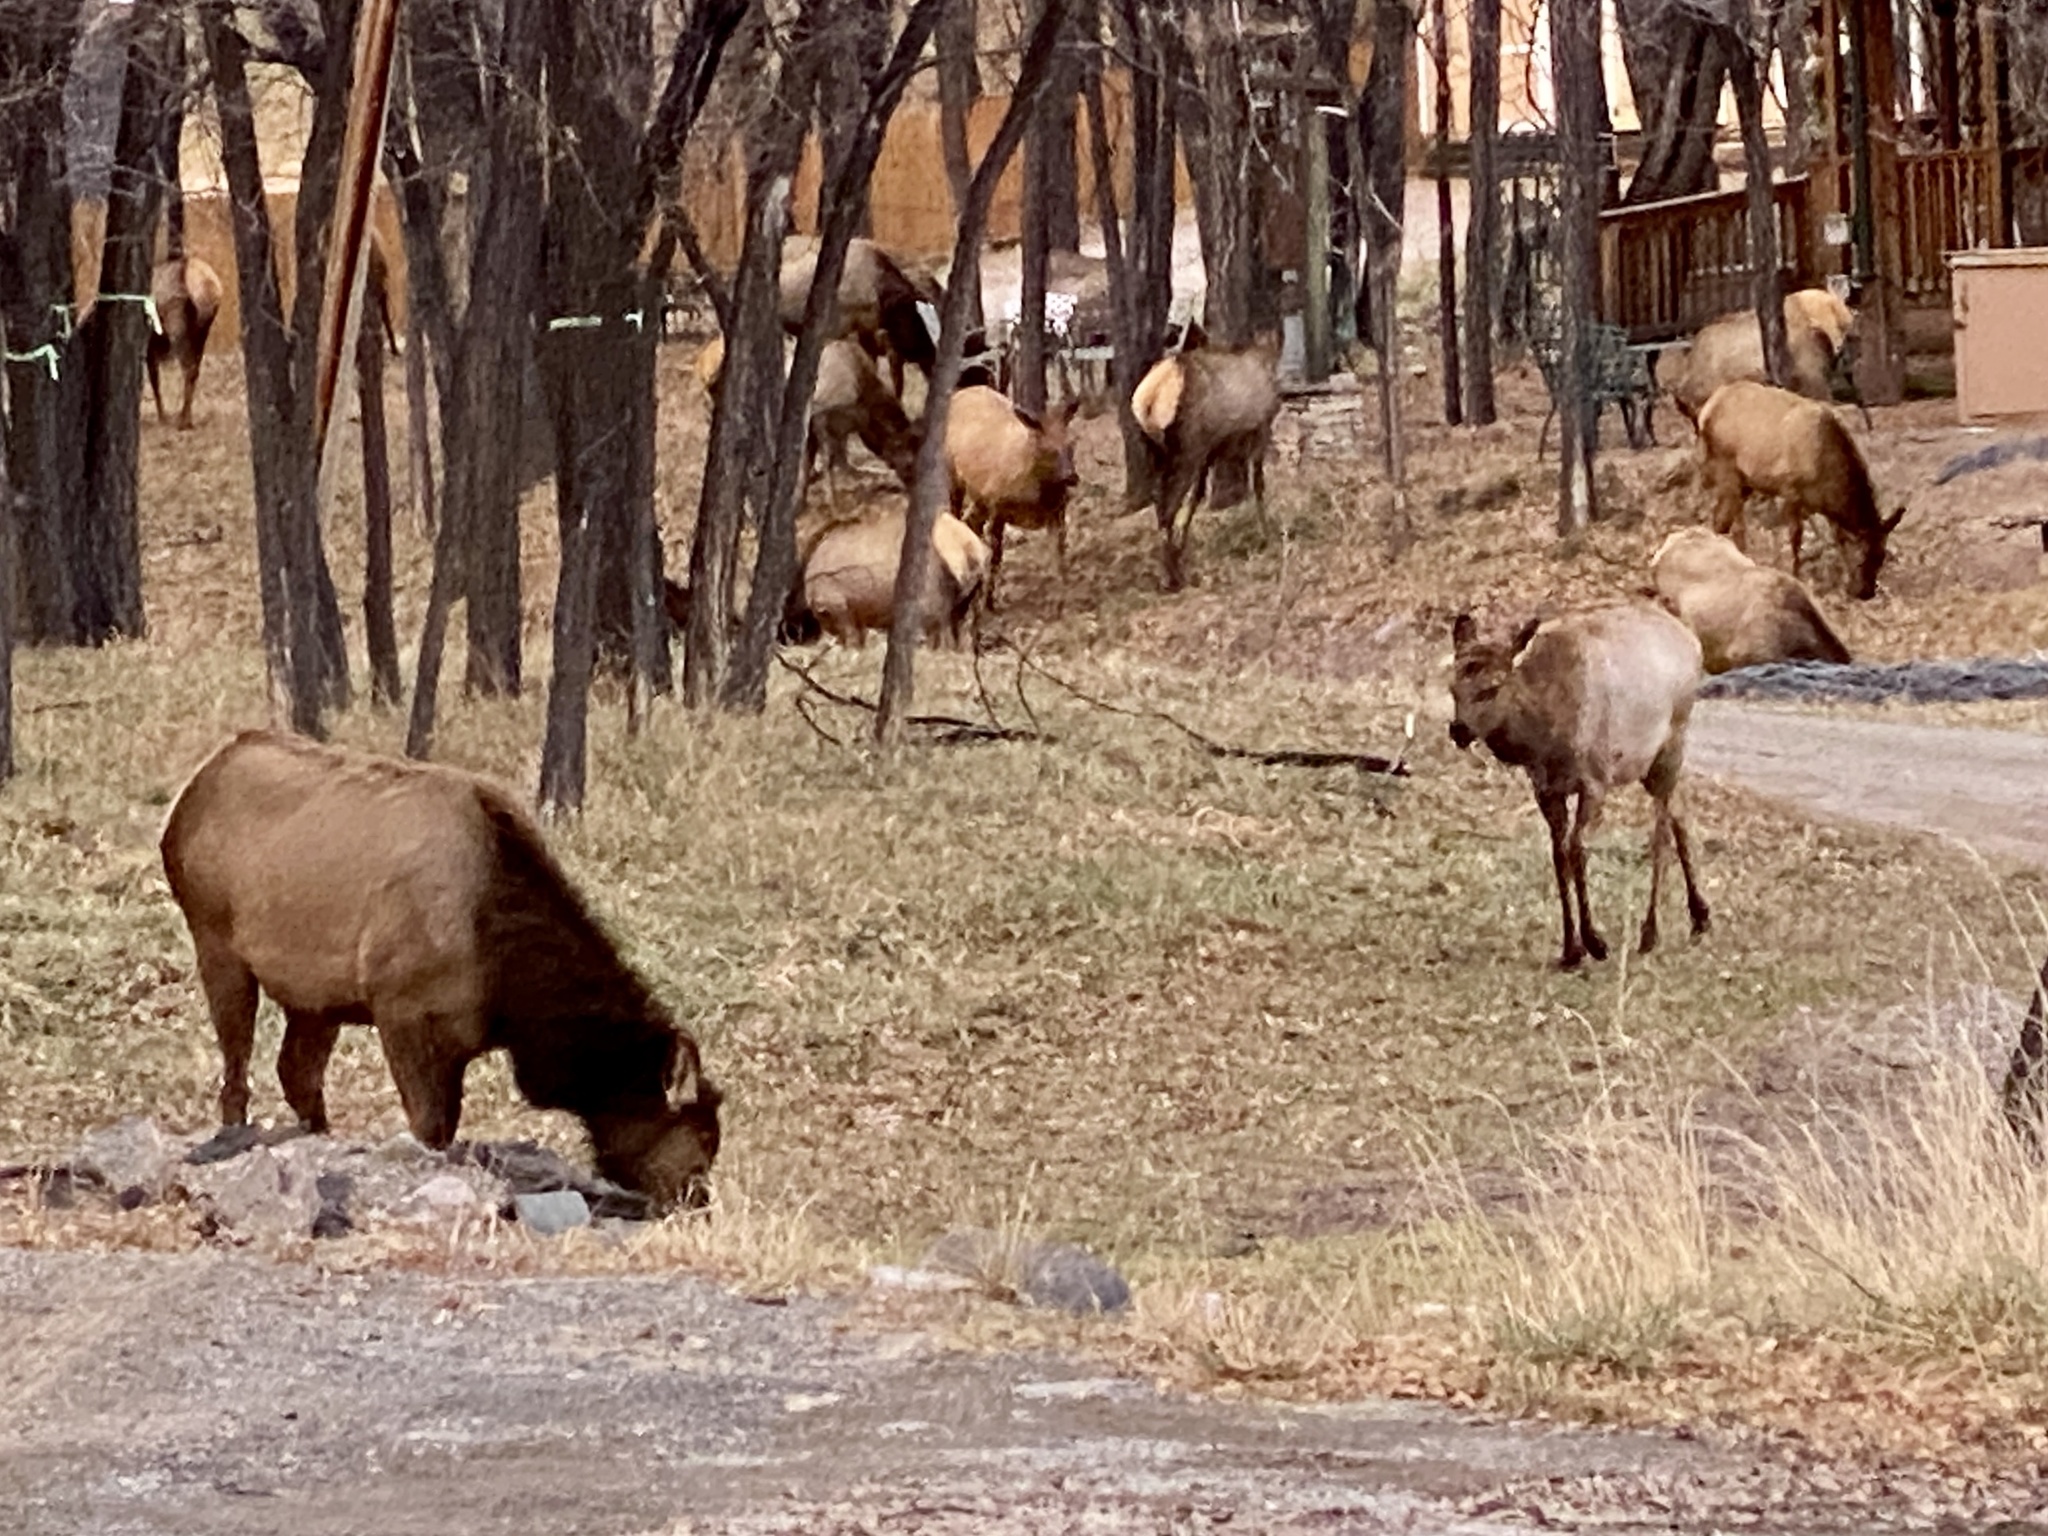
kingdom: Animalia
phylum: Chordata
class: Mammalia
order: Artiodactyla
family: Cervidae
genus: Cervus
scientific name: Cervus elaphus
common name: Red deer
